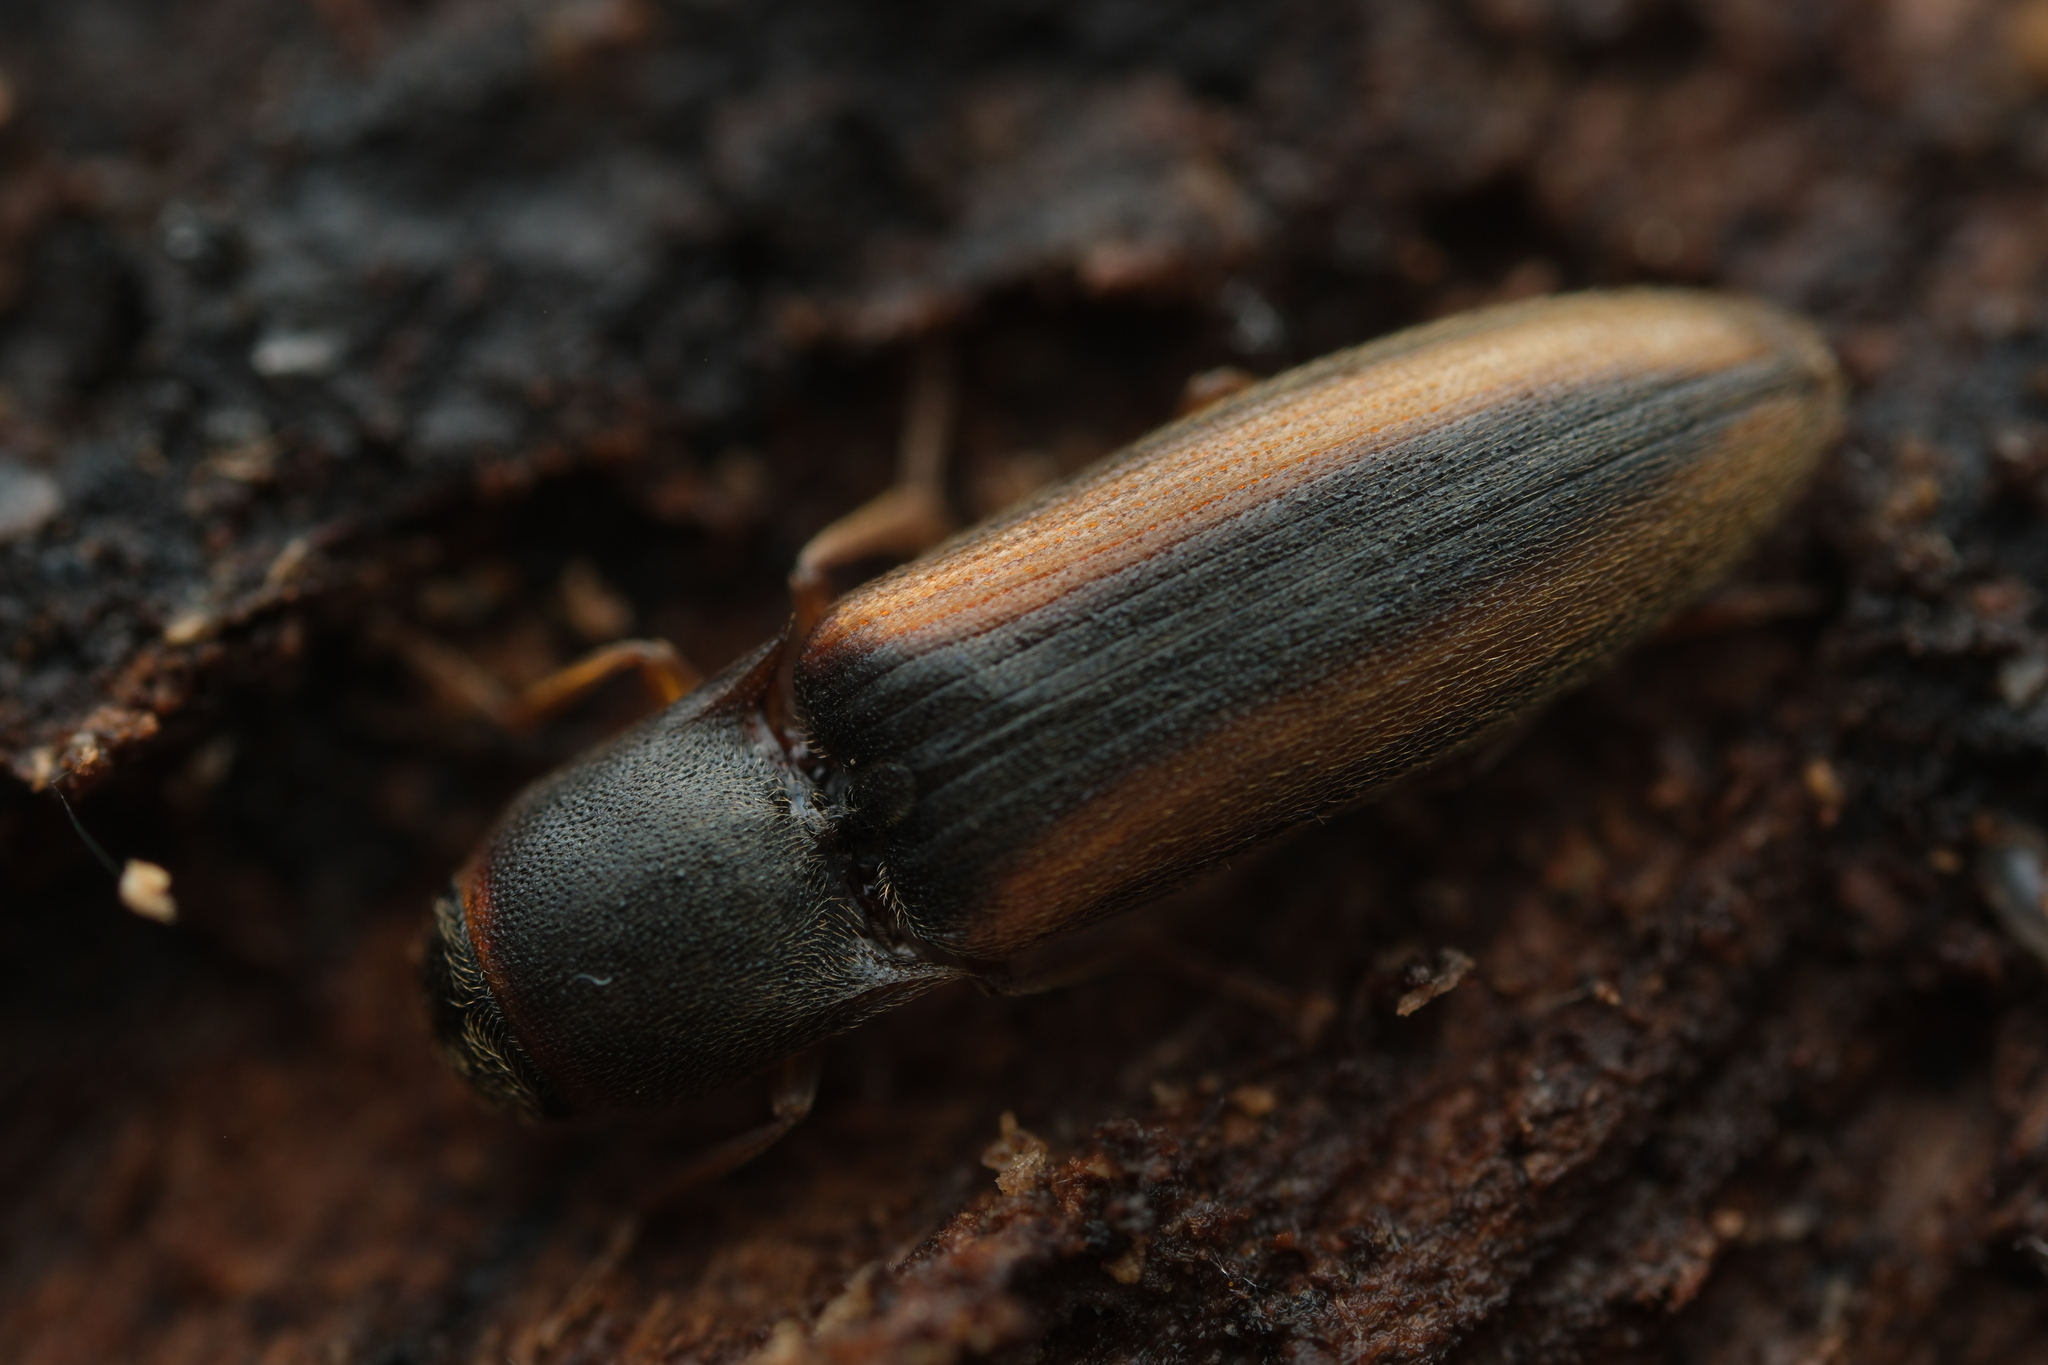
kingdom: Animalia
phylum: Arthropoda
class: Insecta
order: Coleoptera
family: Elateridae
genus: Dalopius
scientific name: Dalopius marginatus
